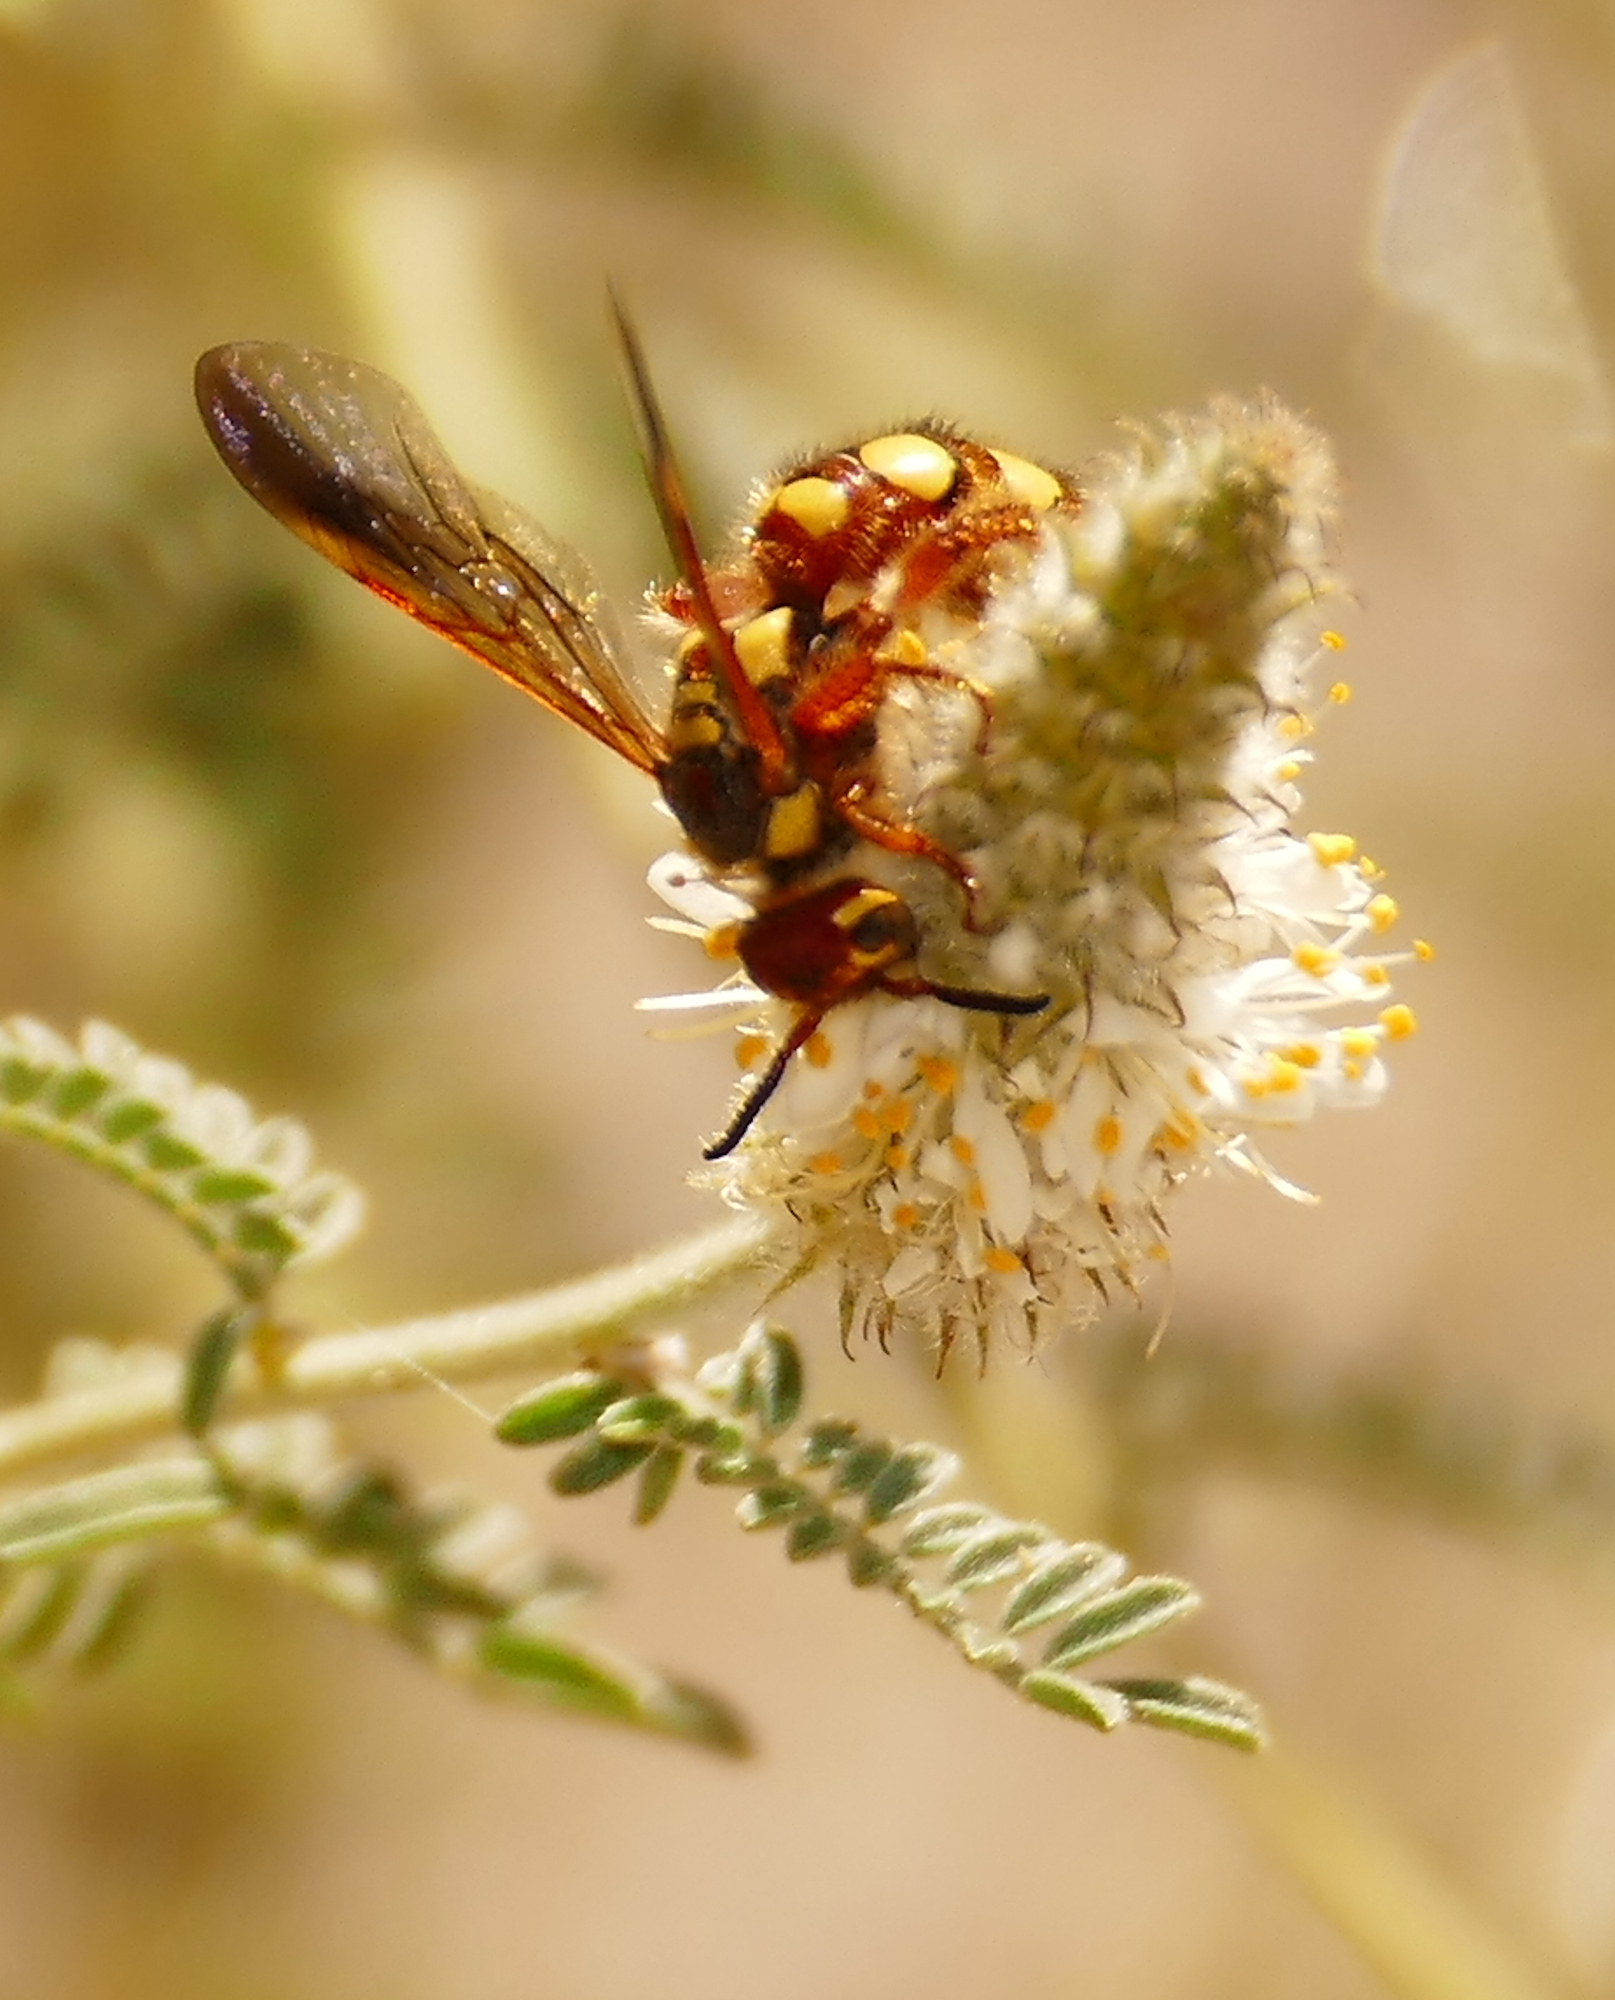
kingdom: Animalia
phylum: Arthropoda
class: Insecta
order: Hymenoptera
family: Scoliidae
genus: Colpa
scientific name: Colpa octomaculata
